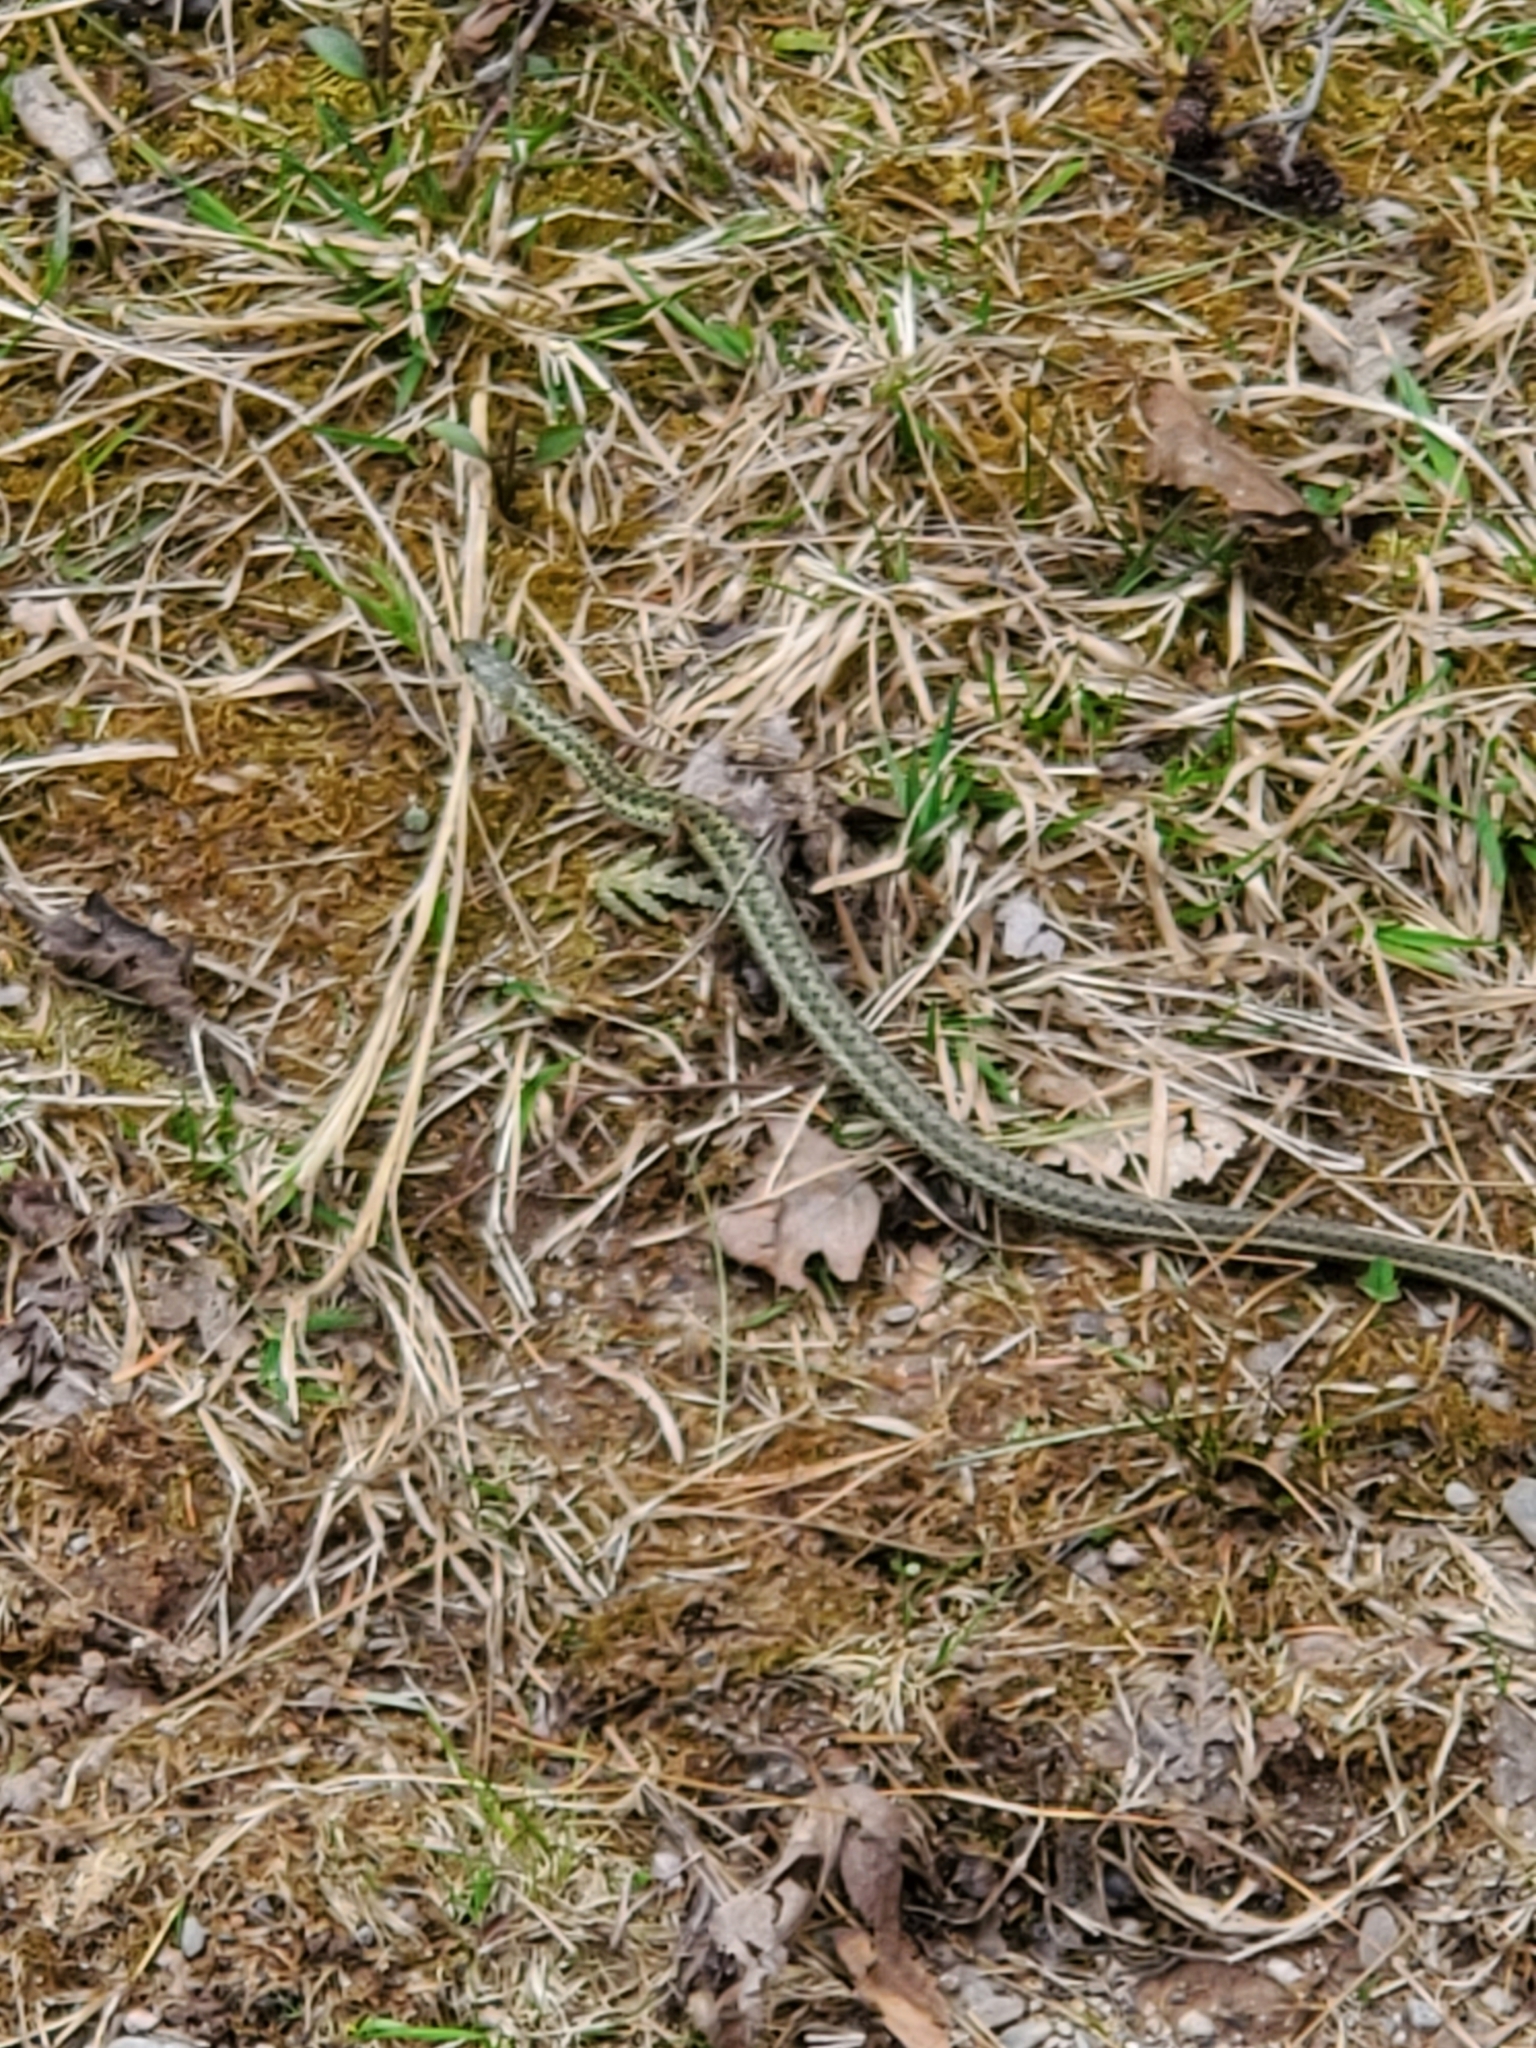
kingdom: Animalia
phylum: Chordata
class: Squamata
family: Colubridae
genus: Thamnophis
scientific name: Thamnophis sirtalis
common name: Common garter snake
